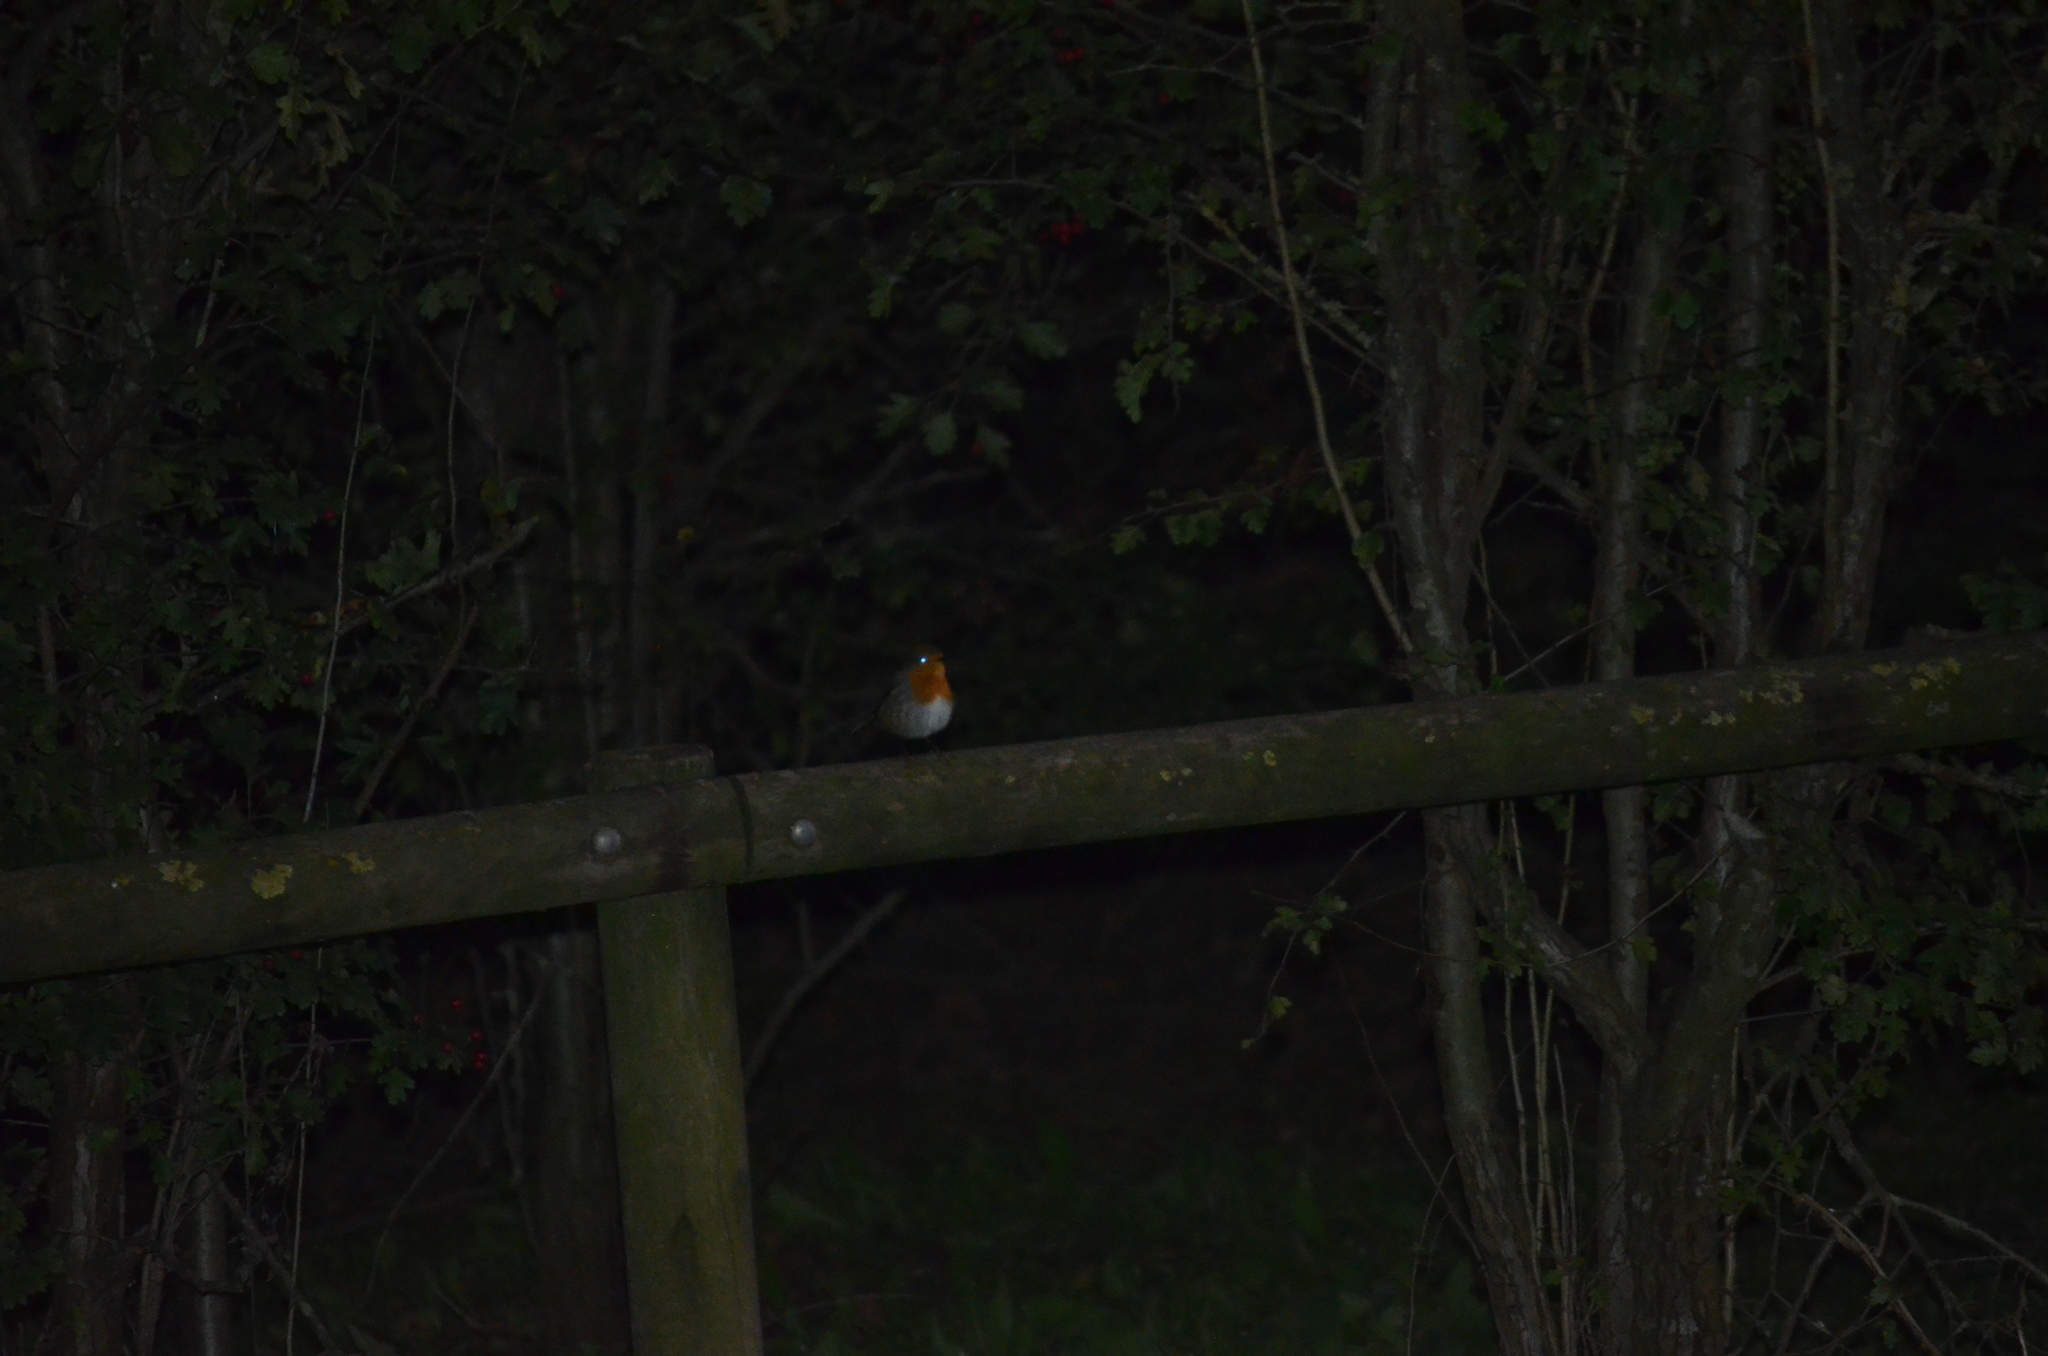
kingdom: Animalia
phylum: Chordata
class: Aves
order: Passeriformes
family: Muscicapidae
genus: Erithacus
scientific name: Erithacus rubecula
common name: European robin
